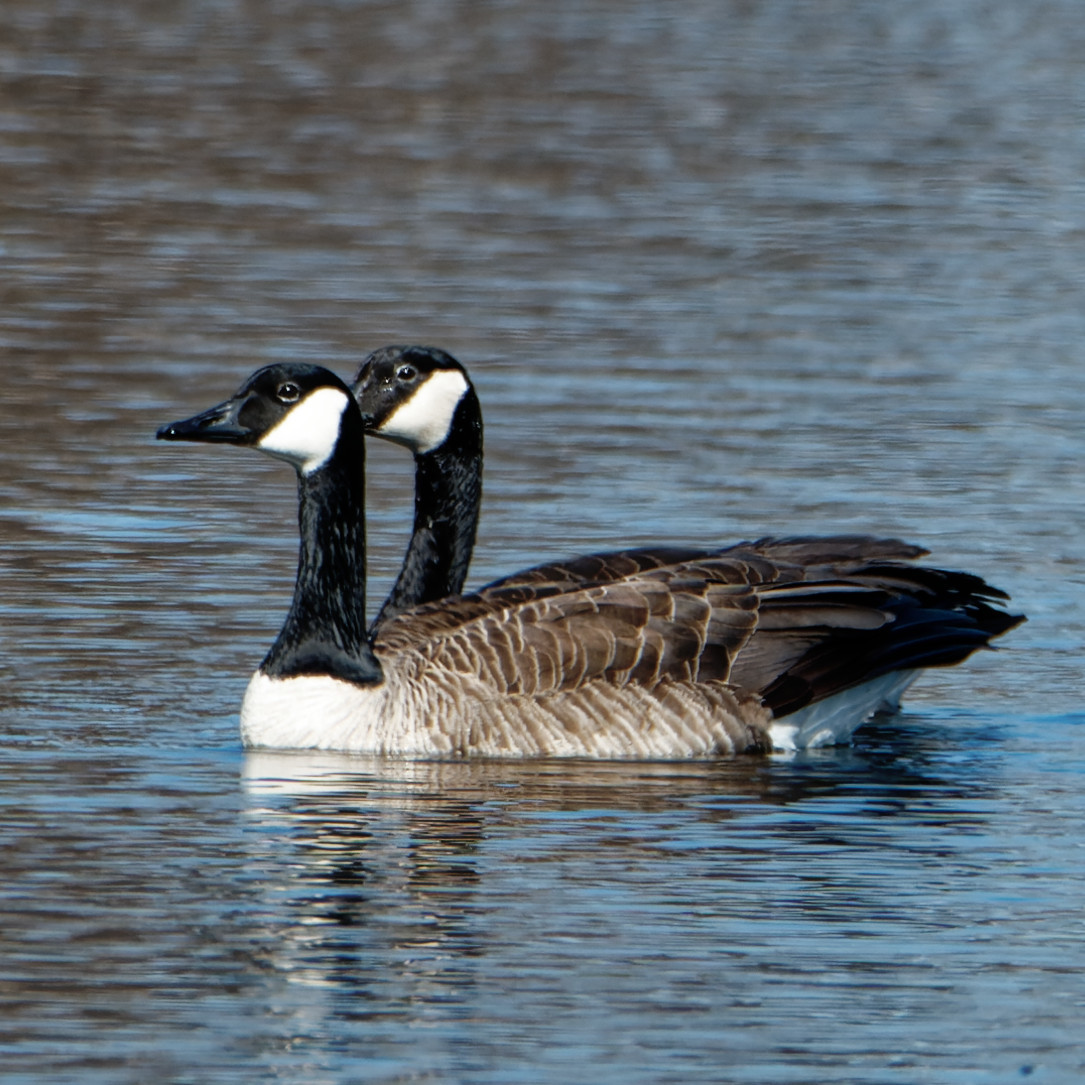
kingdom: Animalia
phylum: Chordata
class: Aves
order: Anseriformes
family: Anatidae
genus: Branta
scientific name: Branta canadensis
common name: Canada goose
